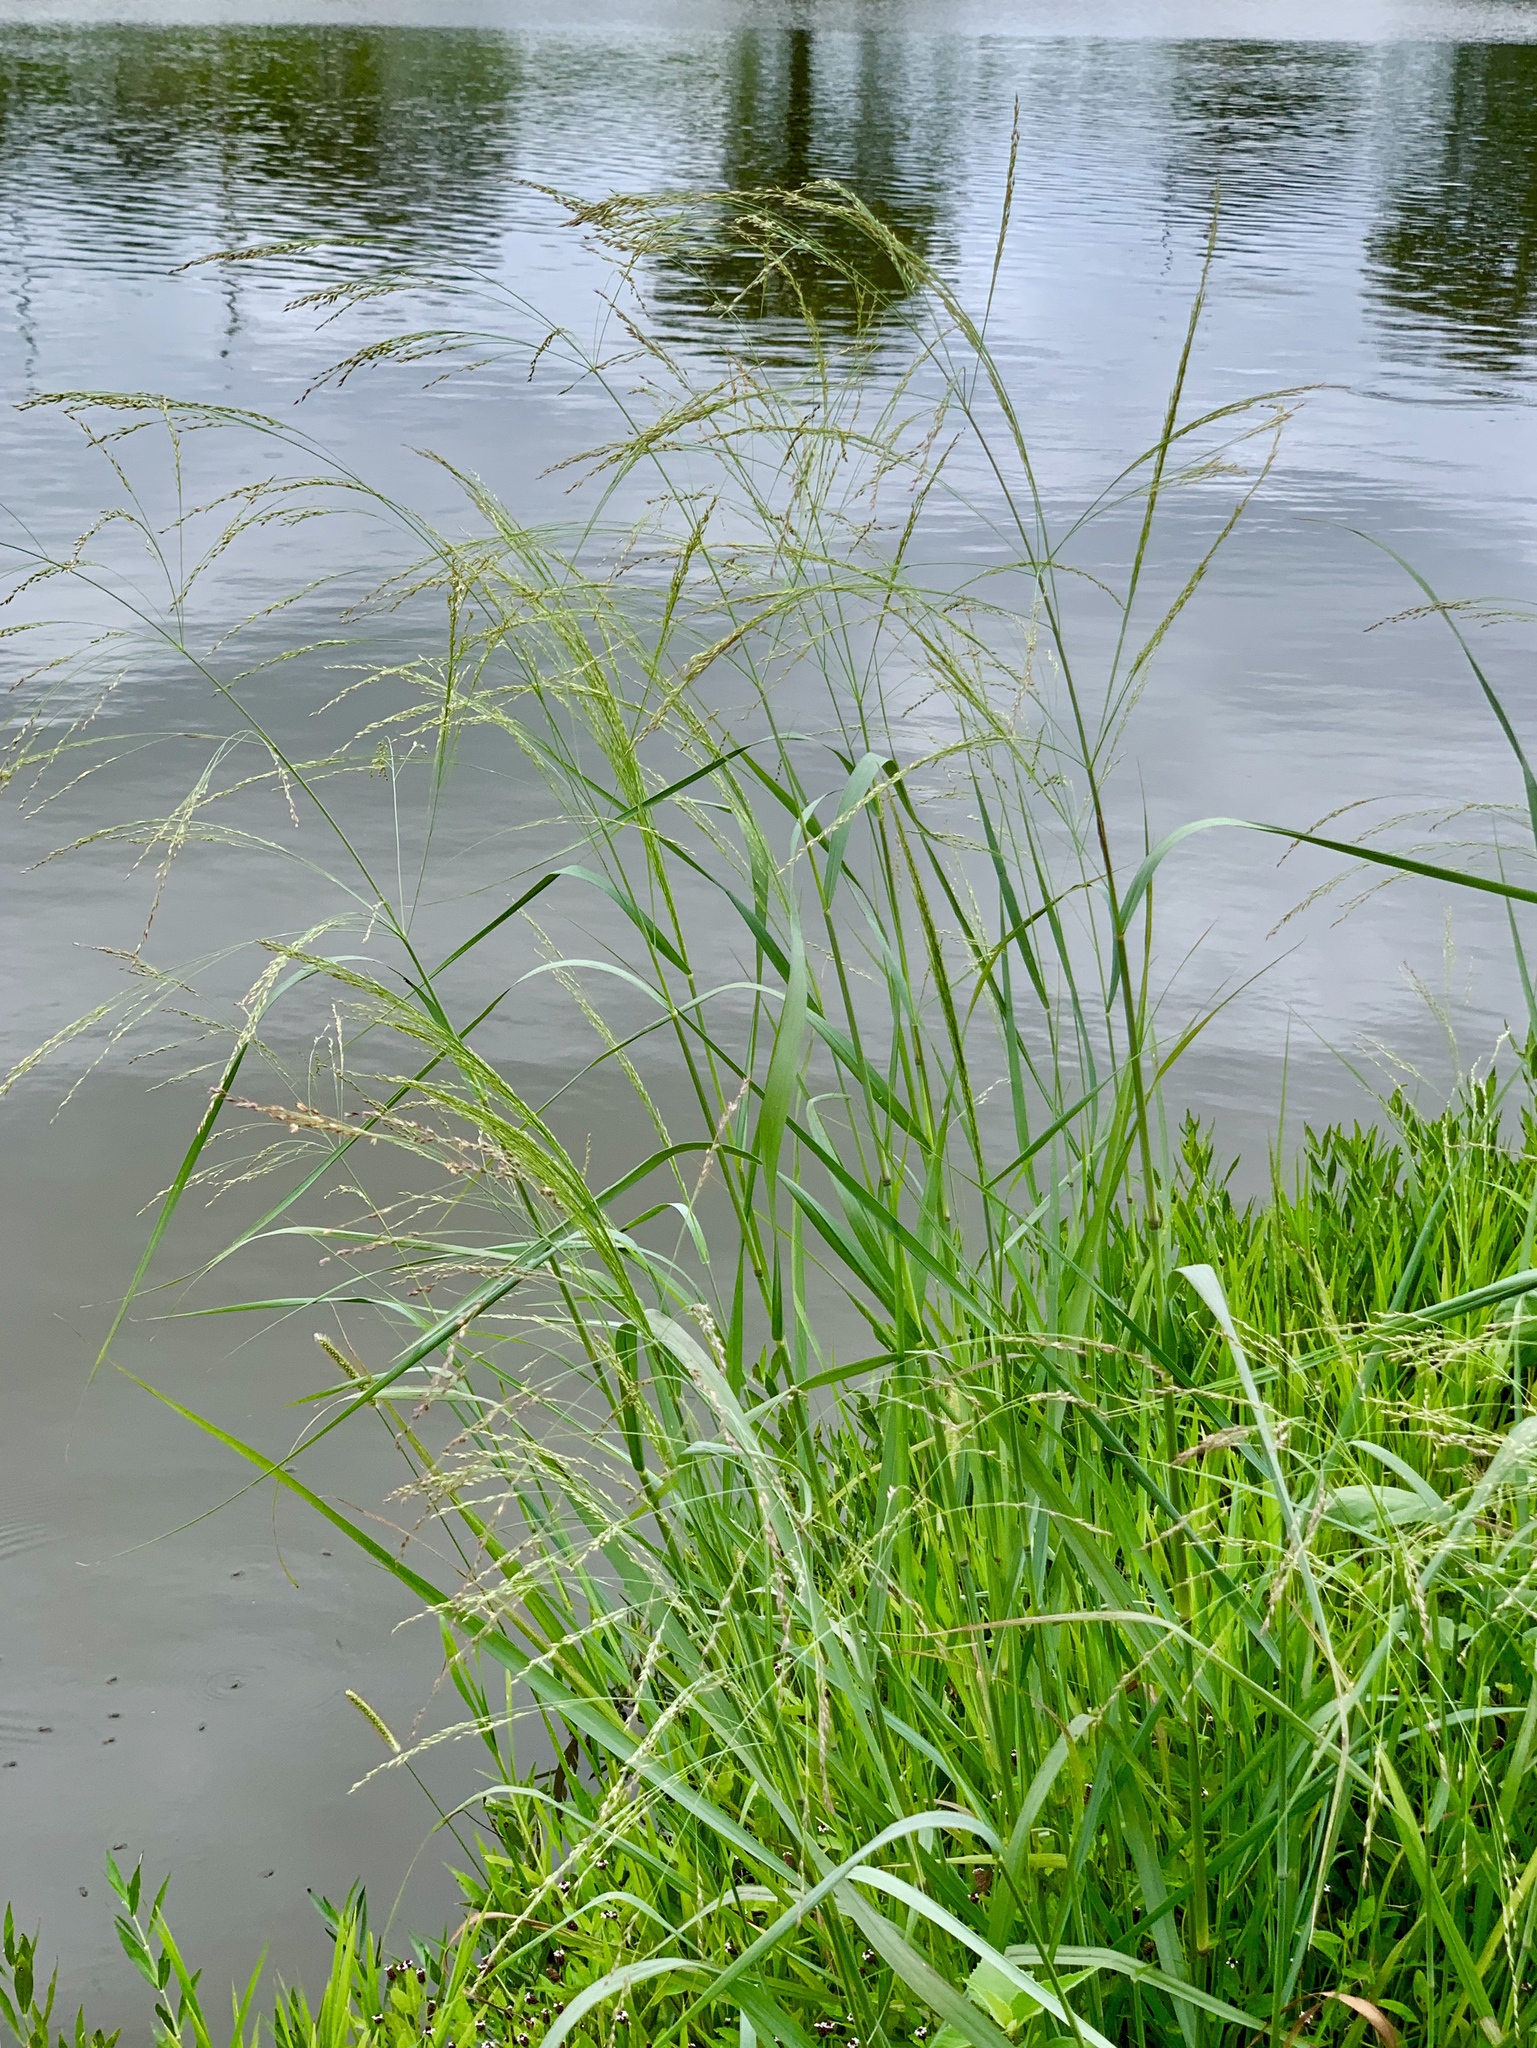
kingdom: Plantae
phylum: Tracheophyta
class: Liliopsida
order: Poales
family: Poaceae
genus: Glyceria
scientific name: Glyceria striata
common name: Fowl manna grass
